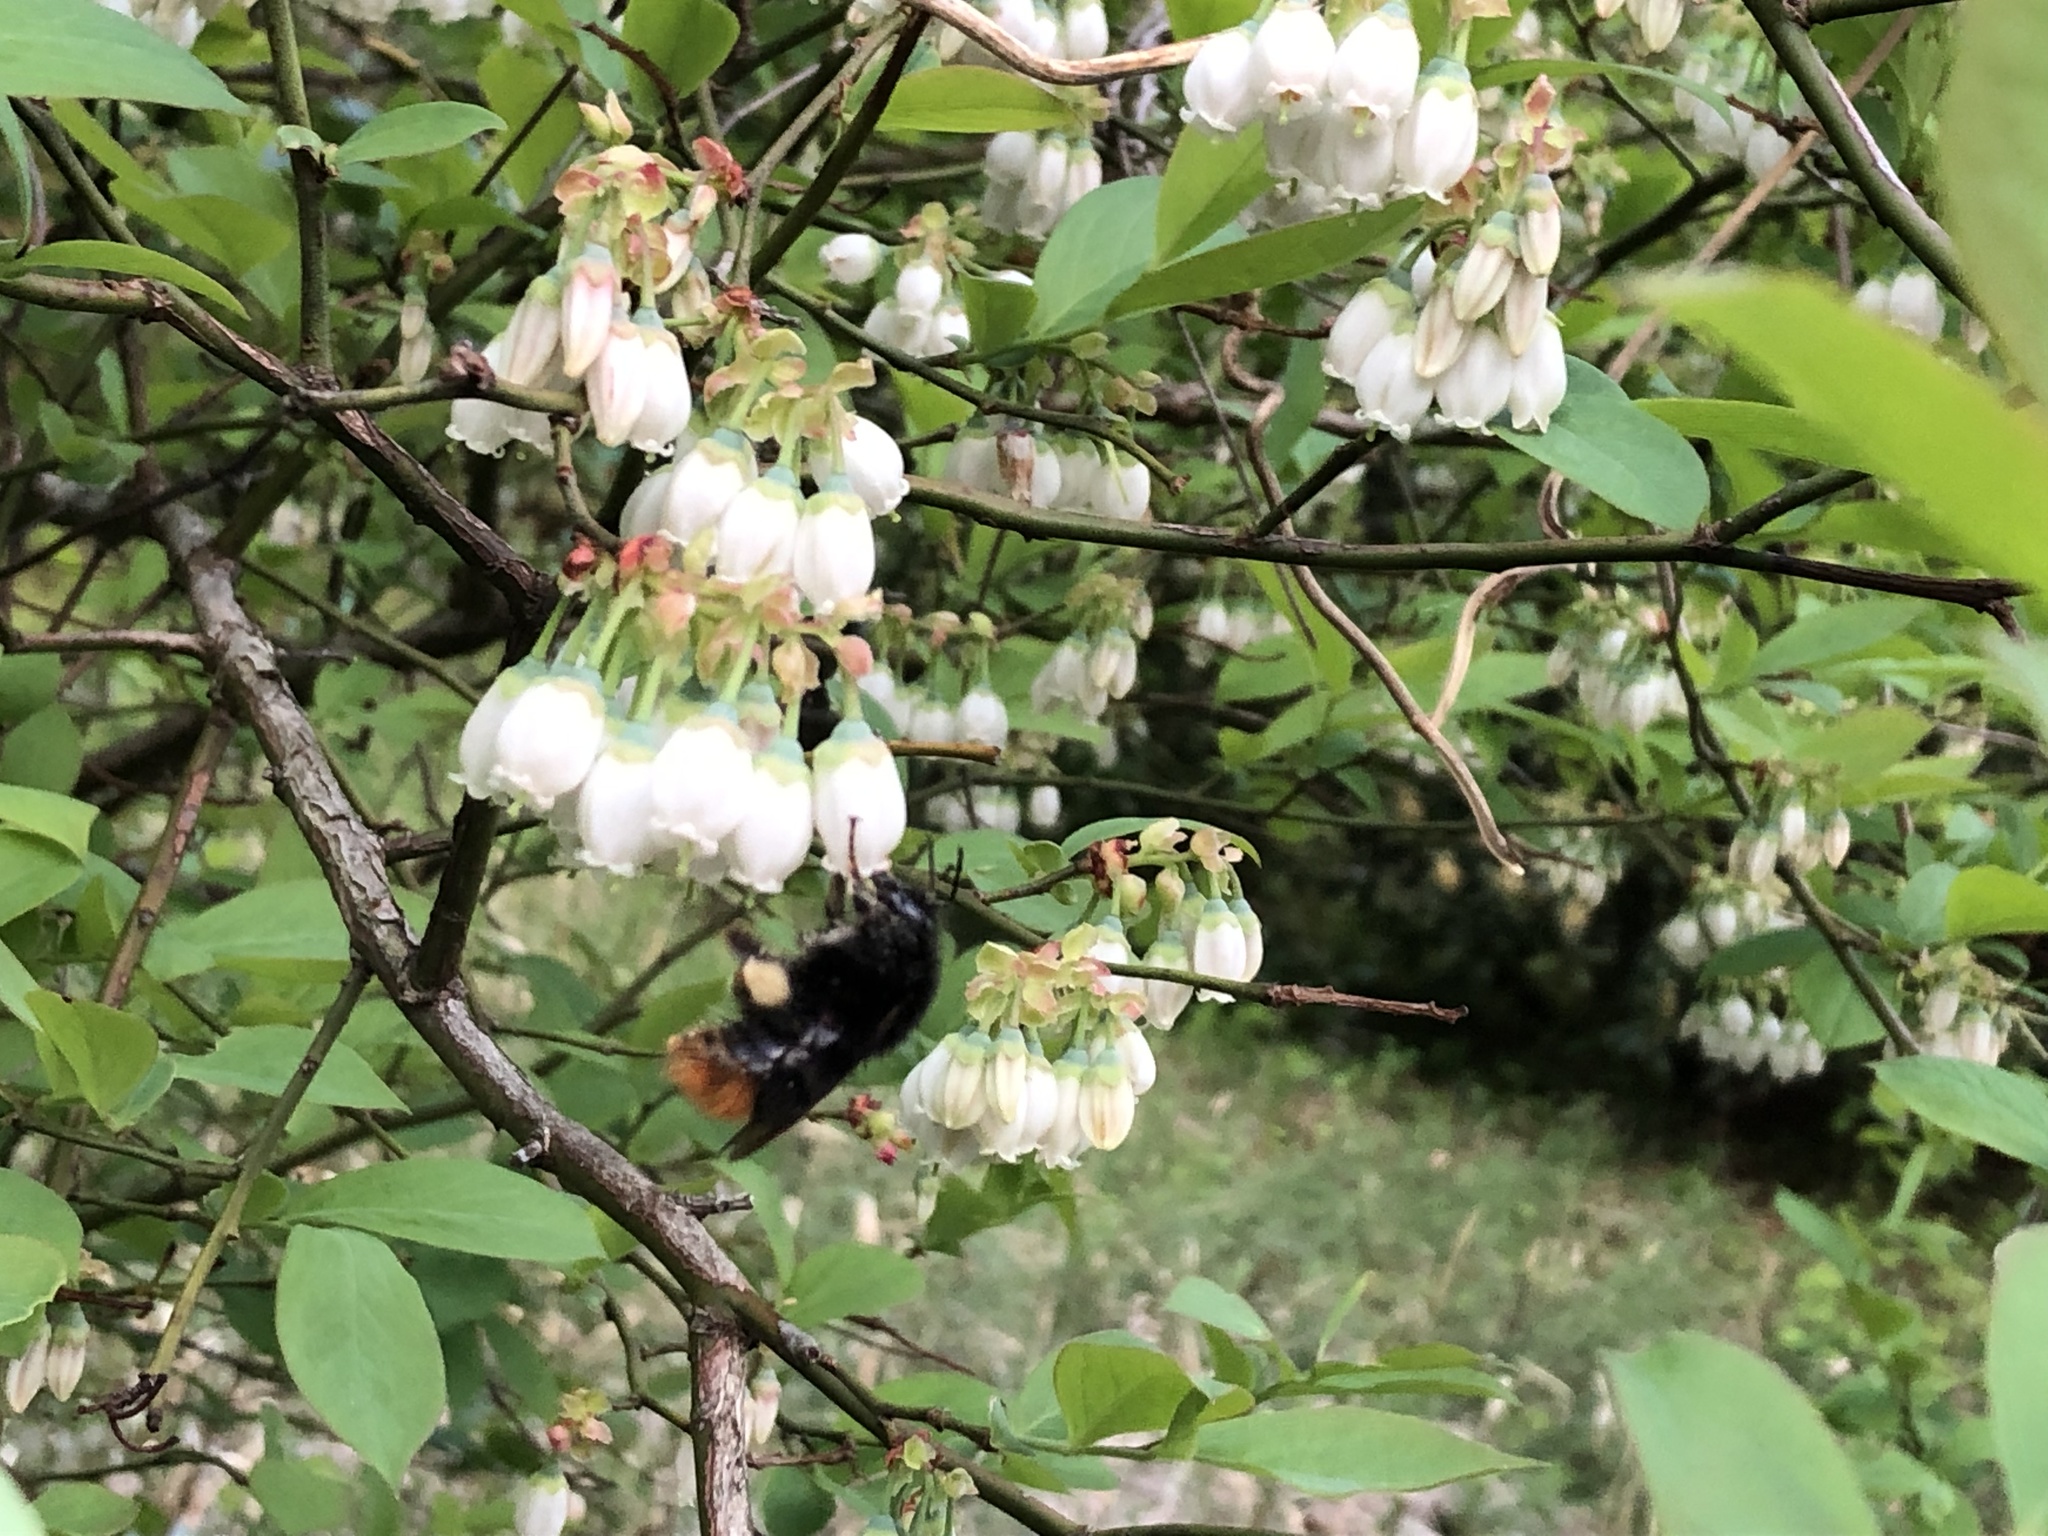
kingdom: Animalia
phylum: Arthropoda
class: Insecta
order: Hymenoptera
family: Apidae
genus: Bombus
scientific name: Bombus ardens
